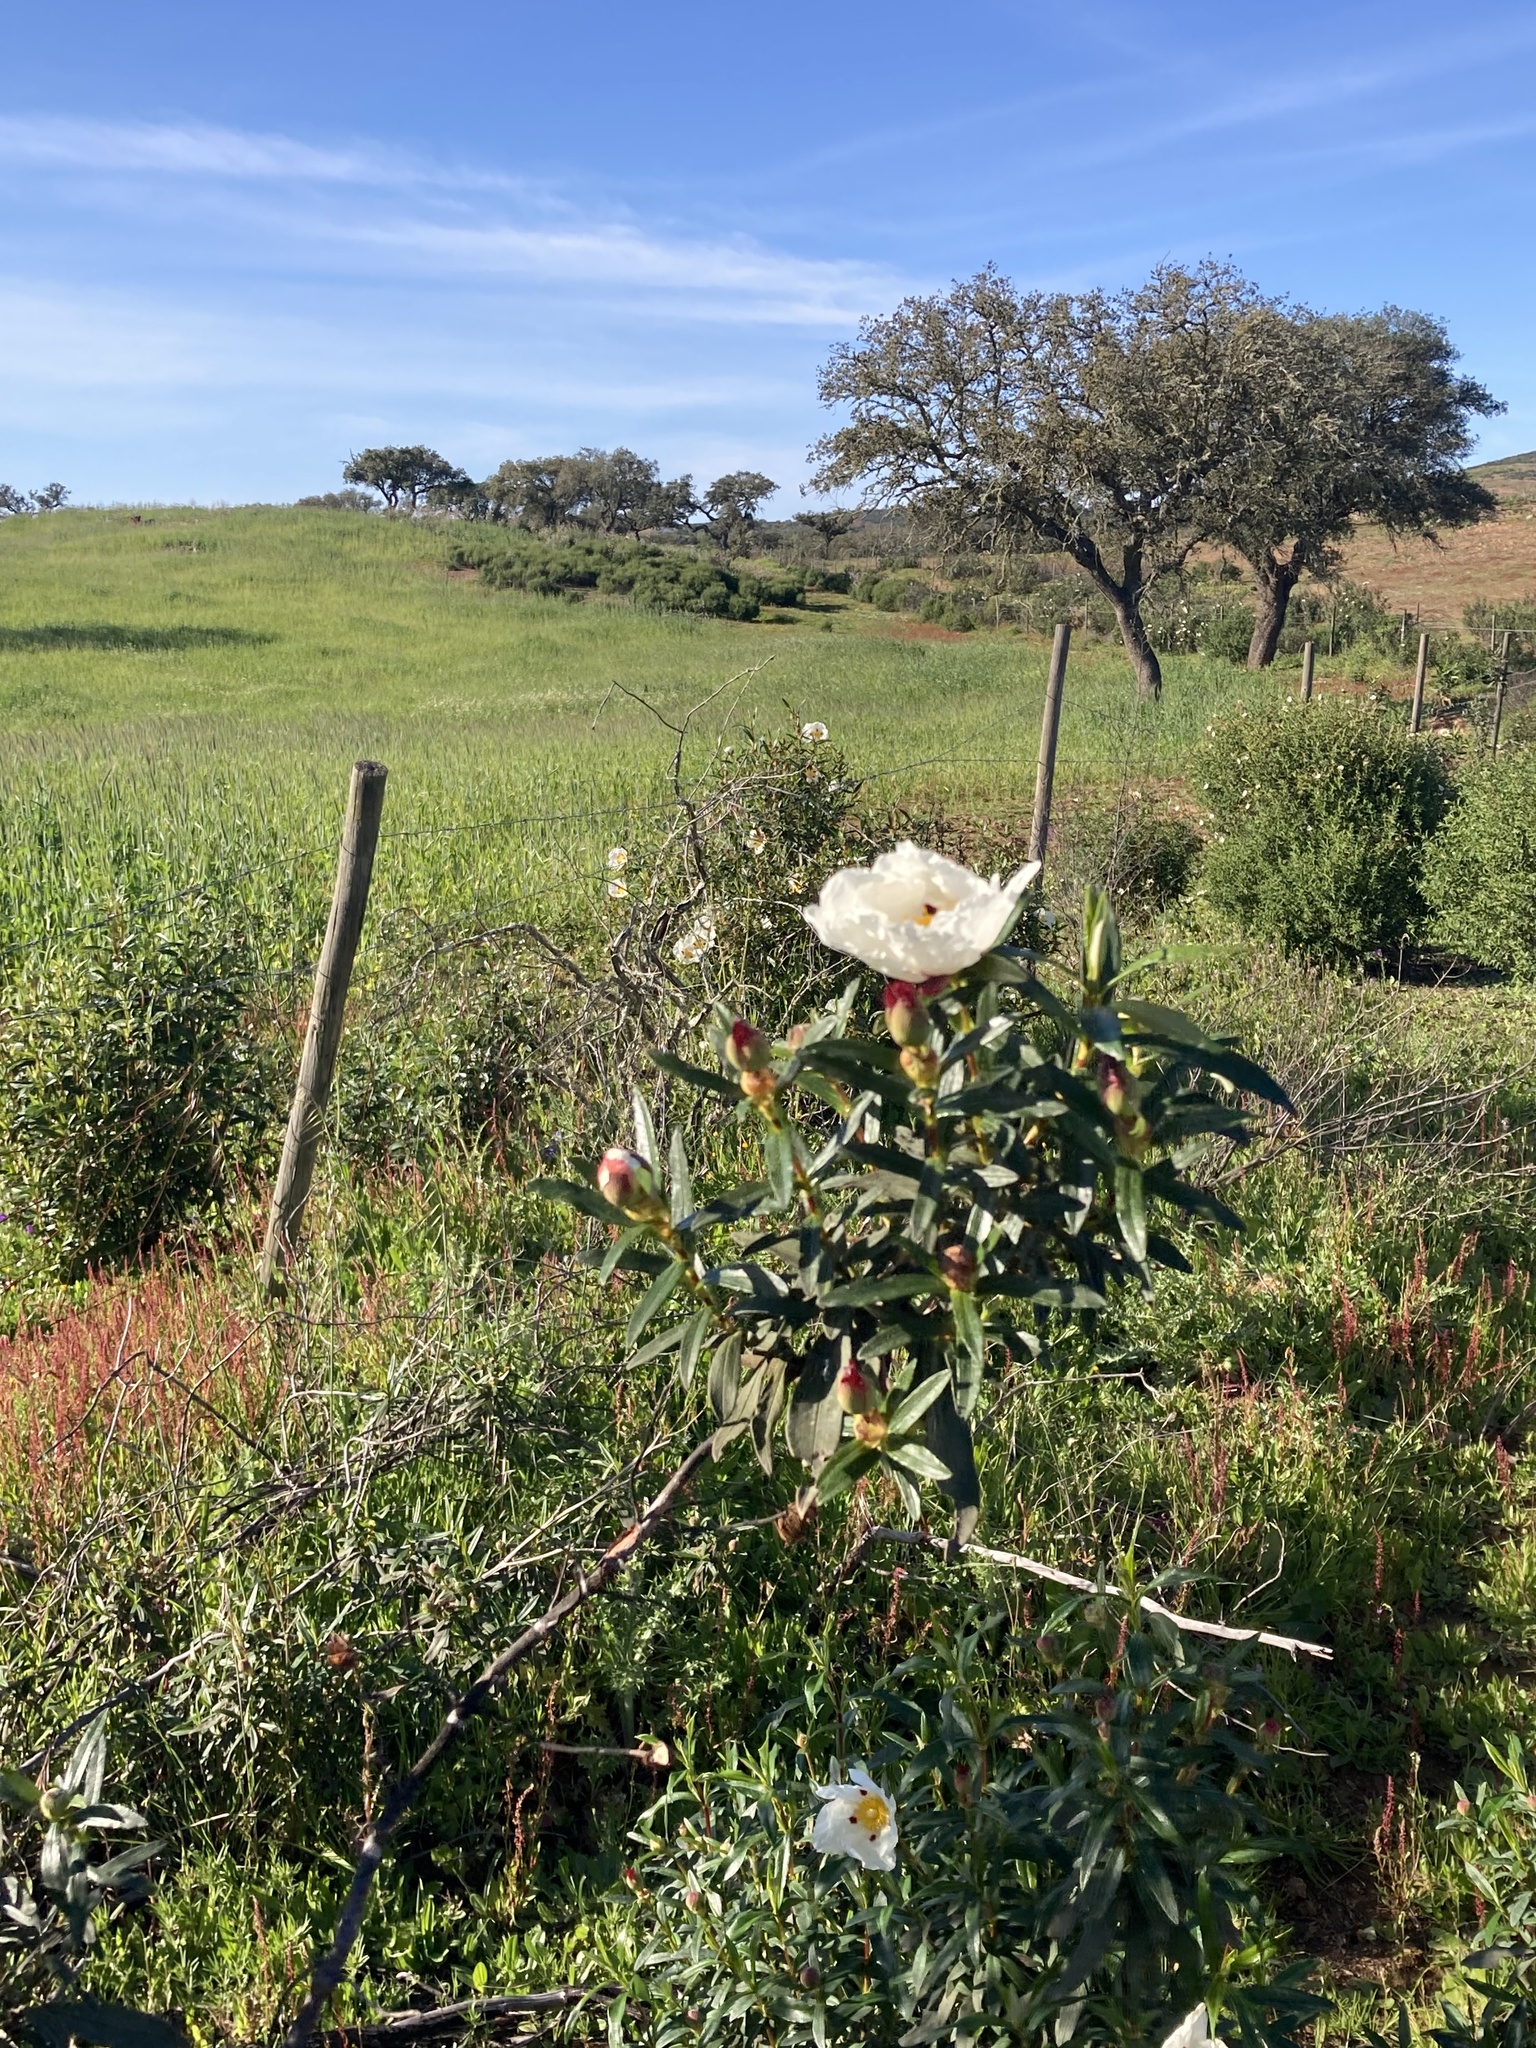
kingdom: Plantae
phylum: Tracheophyta
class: Magnoliopsida
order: Malvales
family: Cistaceae
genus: Cistus
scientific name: Cistus ladanifer
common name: Common gum cistus
